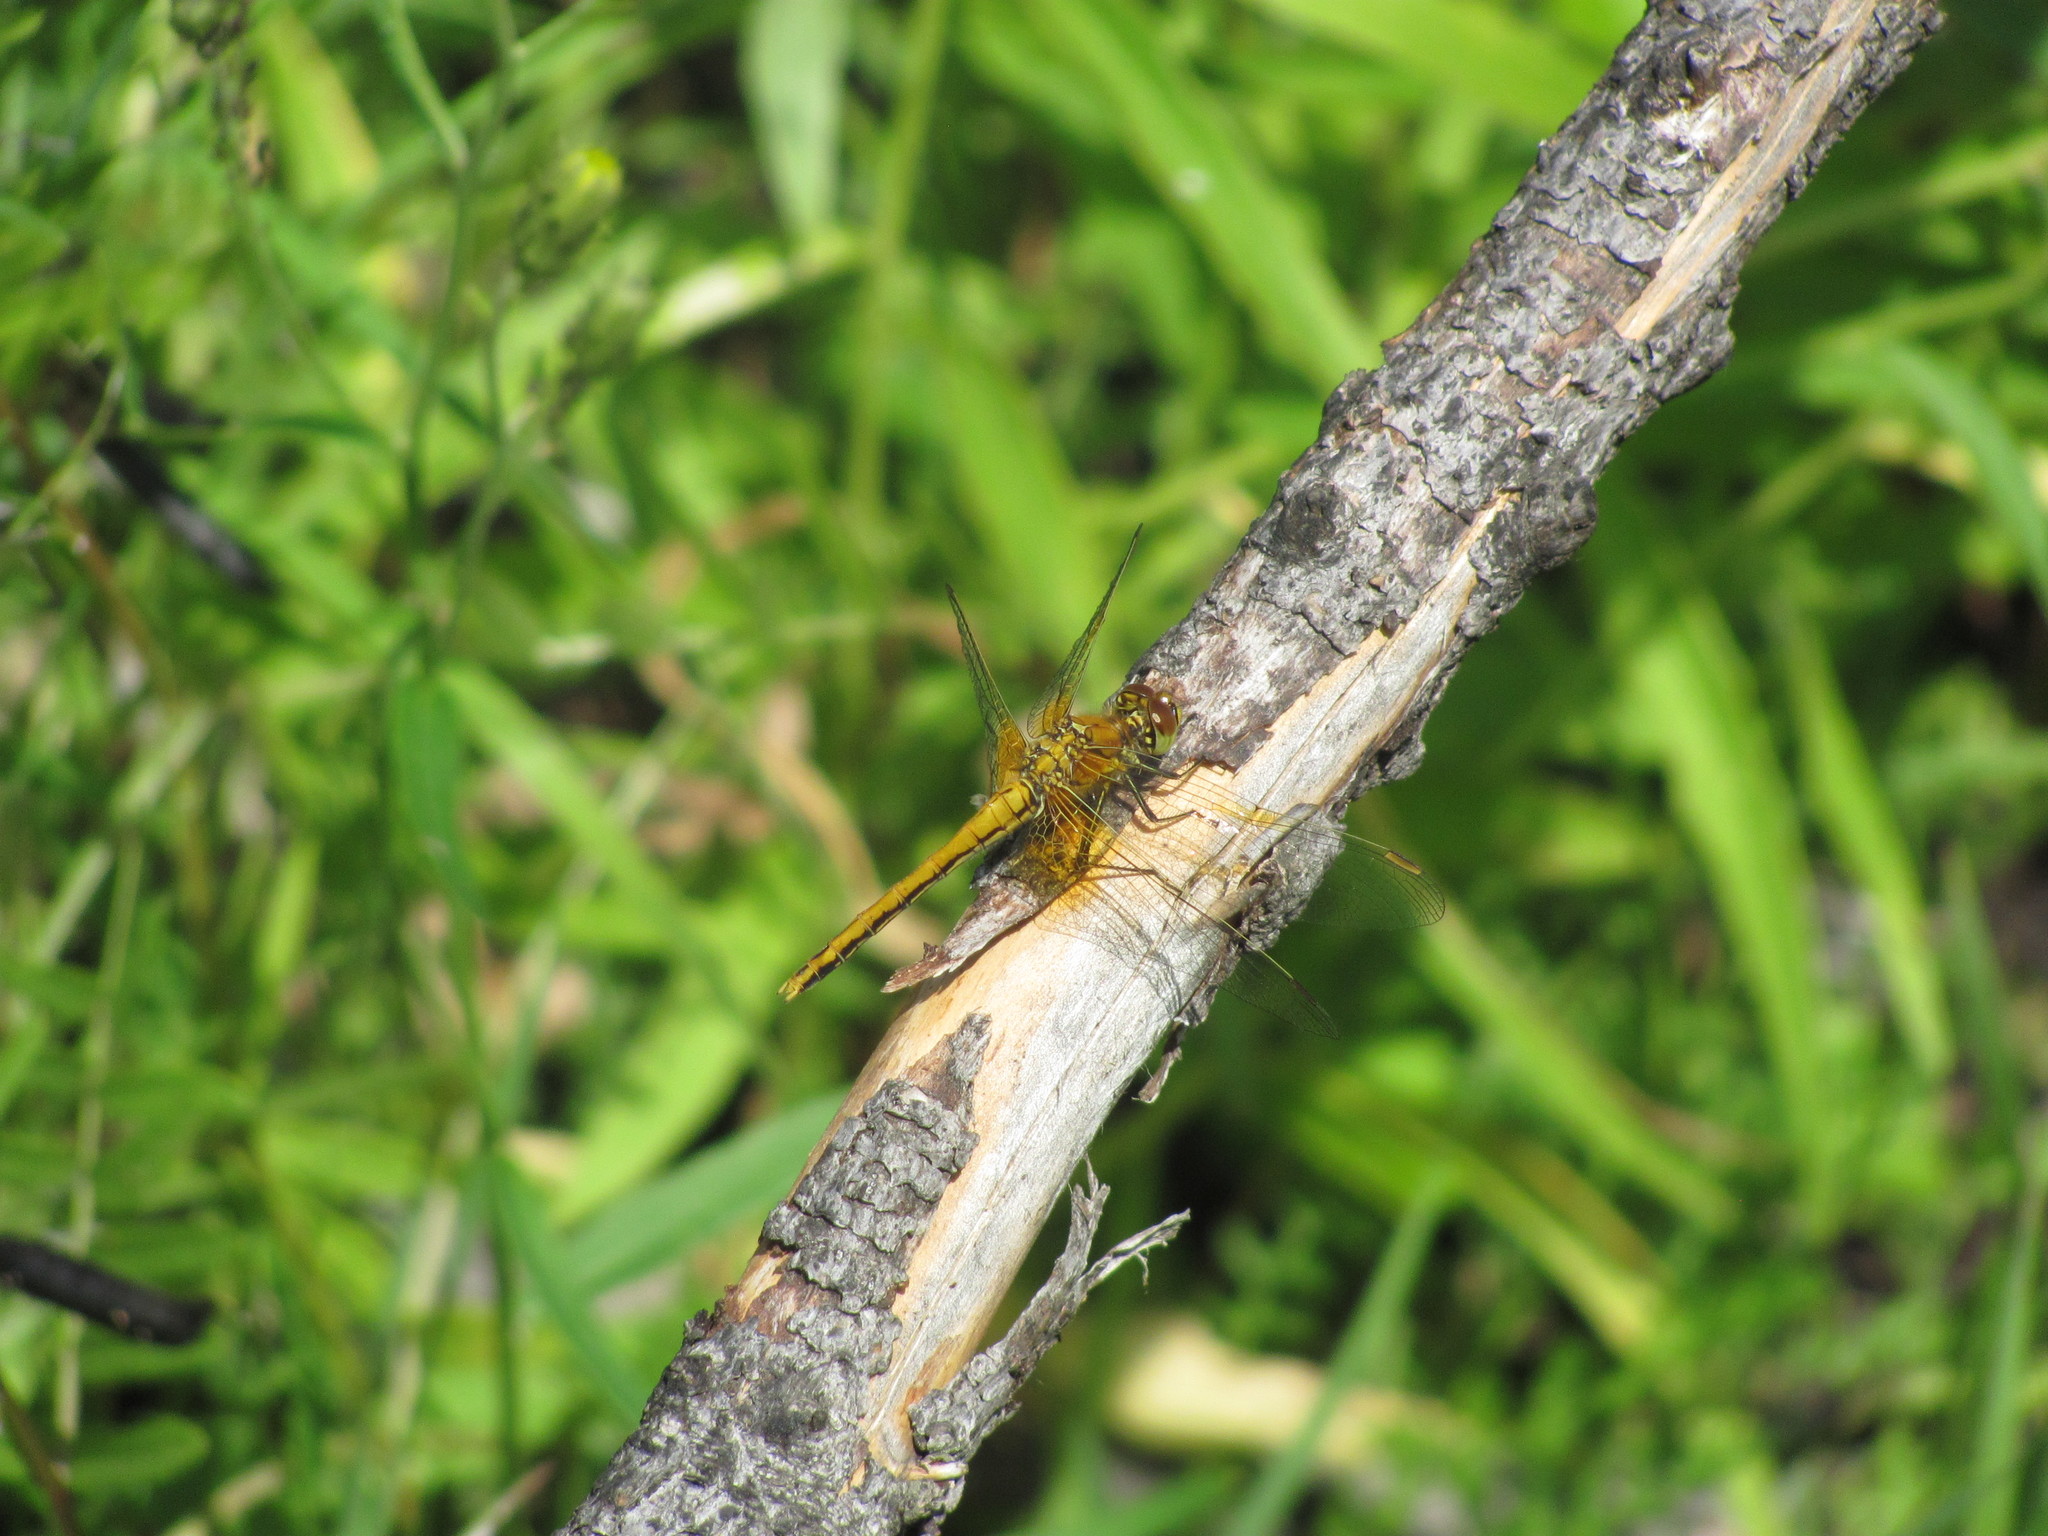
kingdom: Animalia
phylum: Arthropoda
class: Insecta
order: Odonata
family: Libellulidae
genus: Sympetrum
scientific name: Sympetrum flaveolum
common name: Yellow-winged darter
